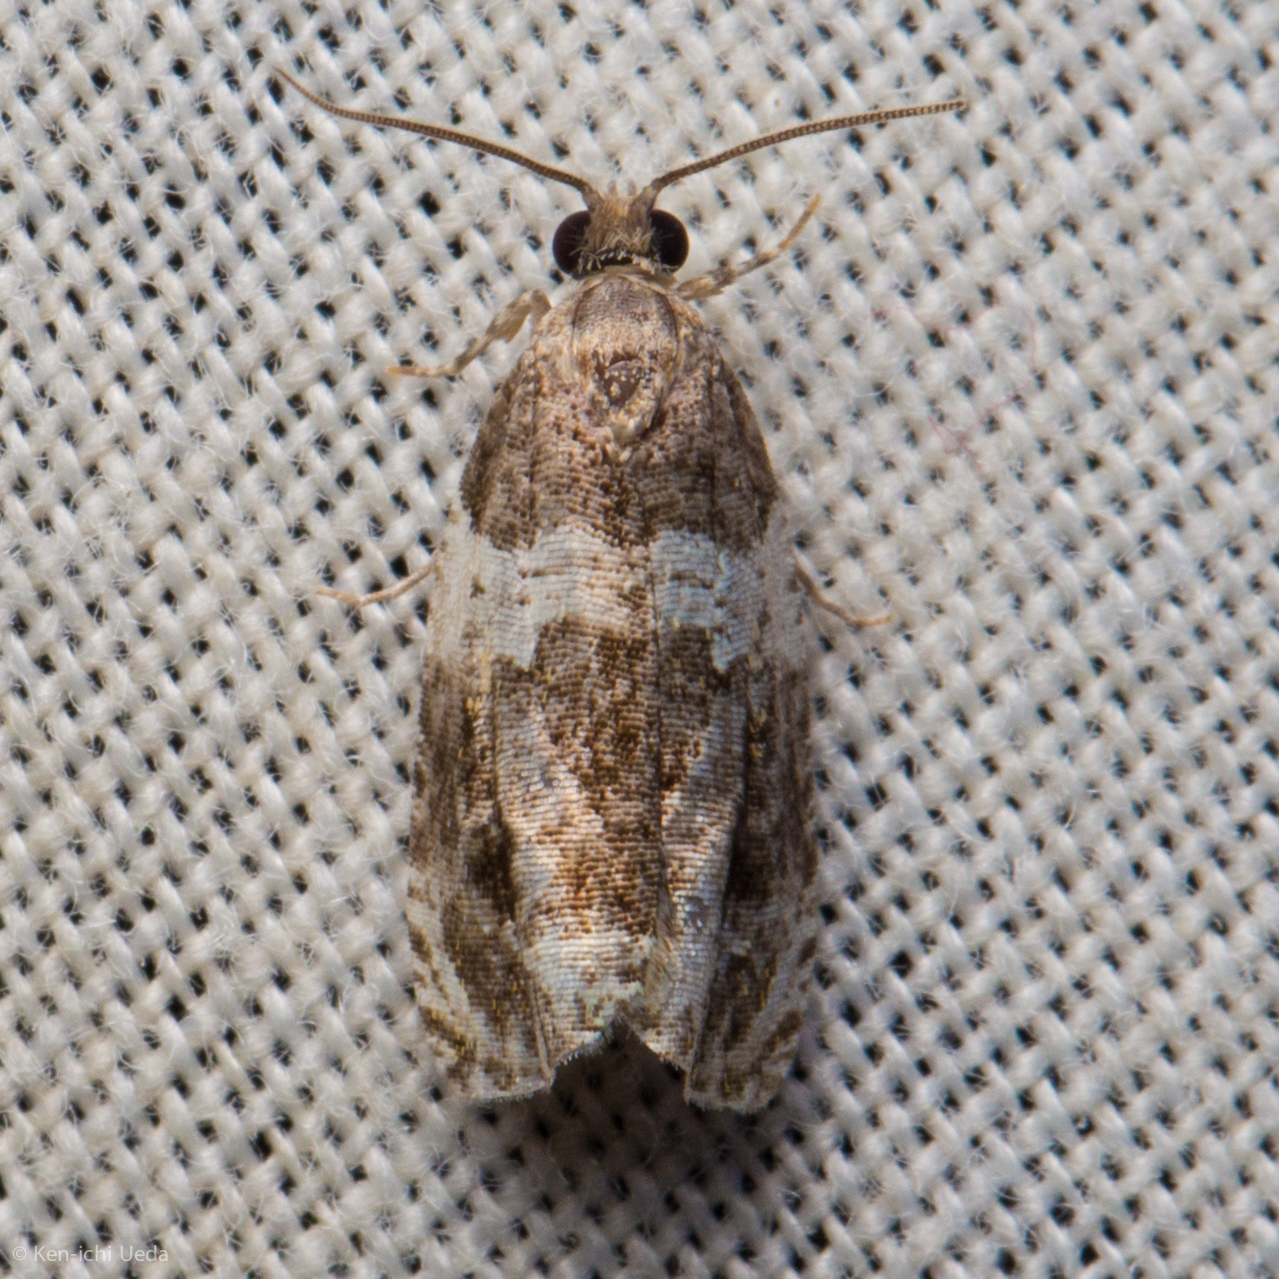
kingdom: Animalia
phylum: Arthropoda
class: Insecta
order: Lepidoptera
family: Tortricidae
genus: Olethreutes
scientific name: Olethreutes fasciatana
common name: Banded olethreutes moth
